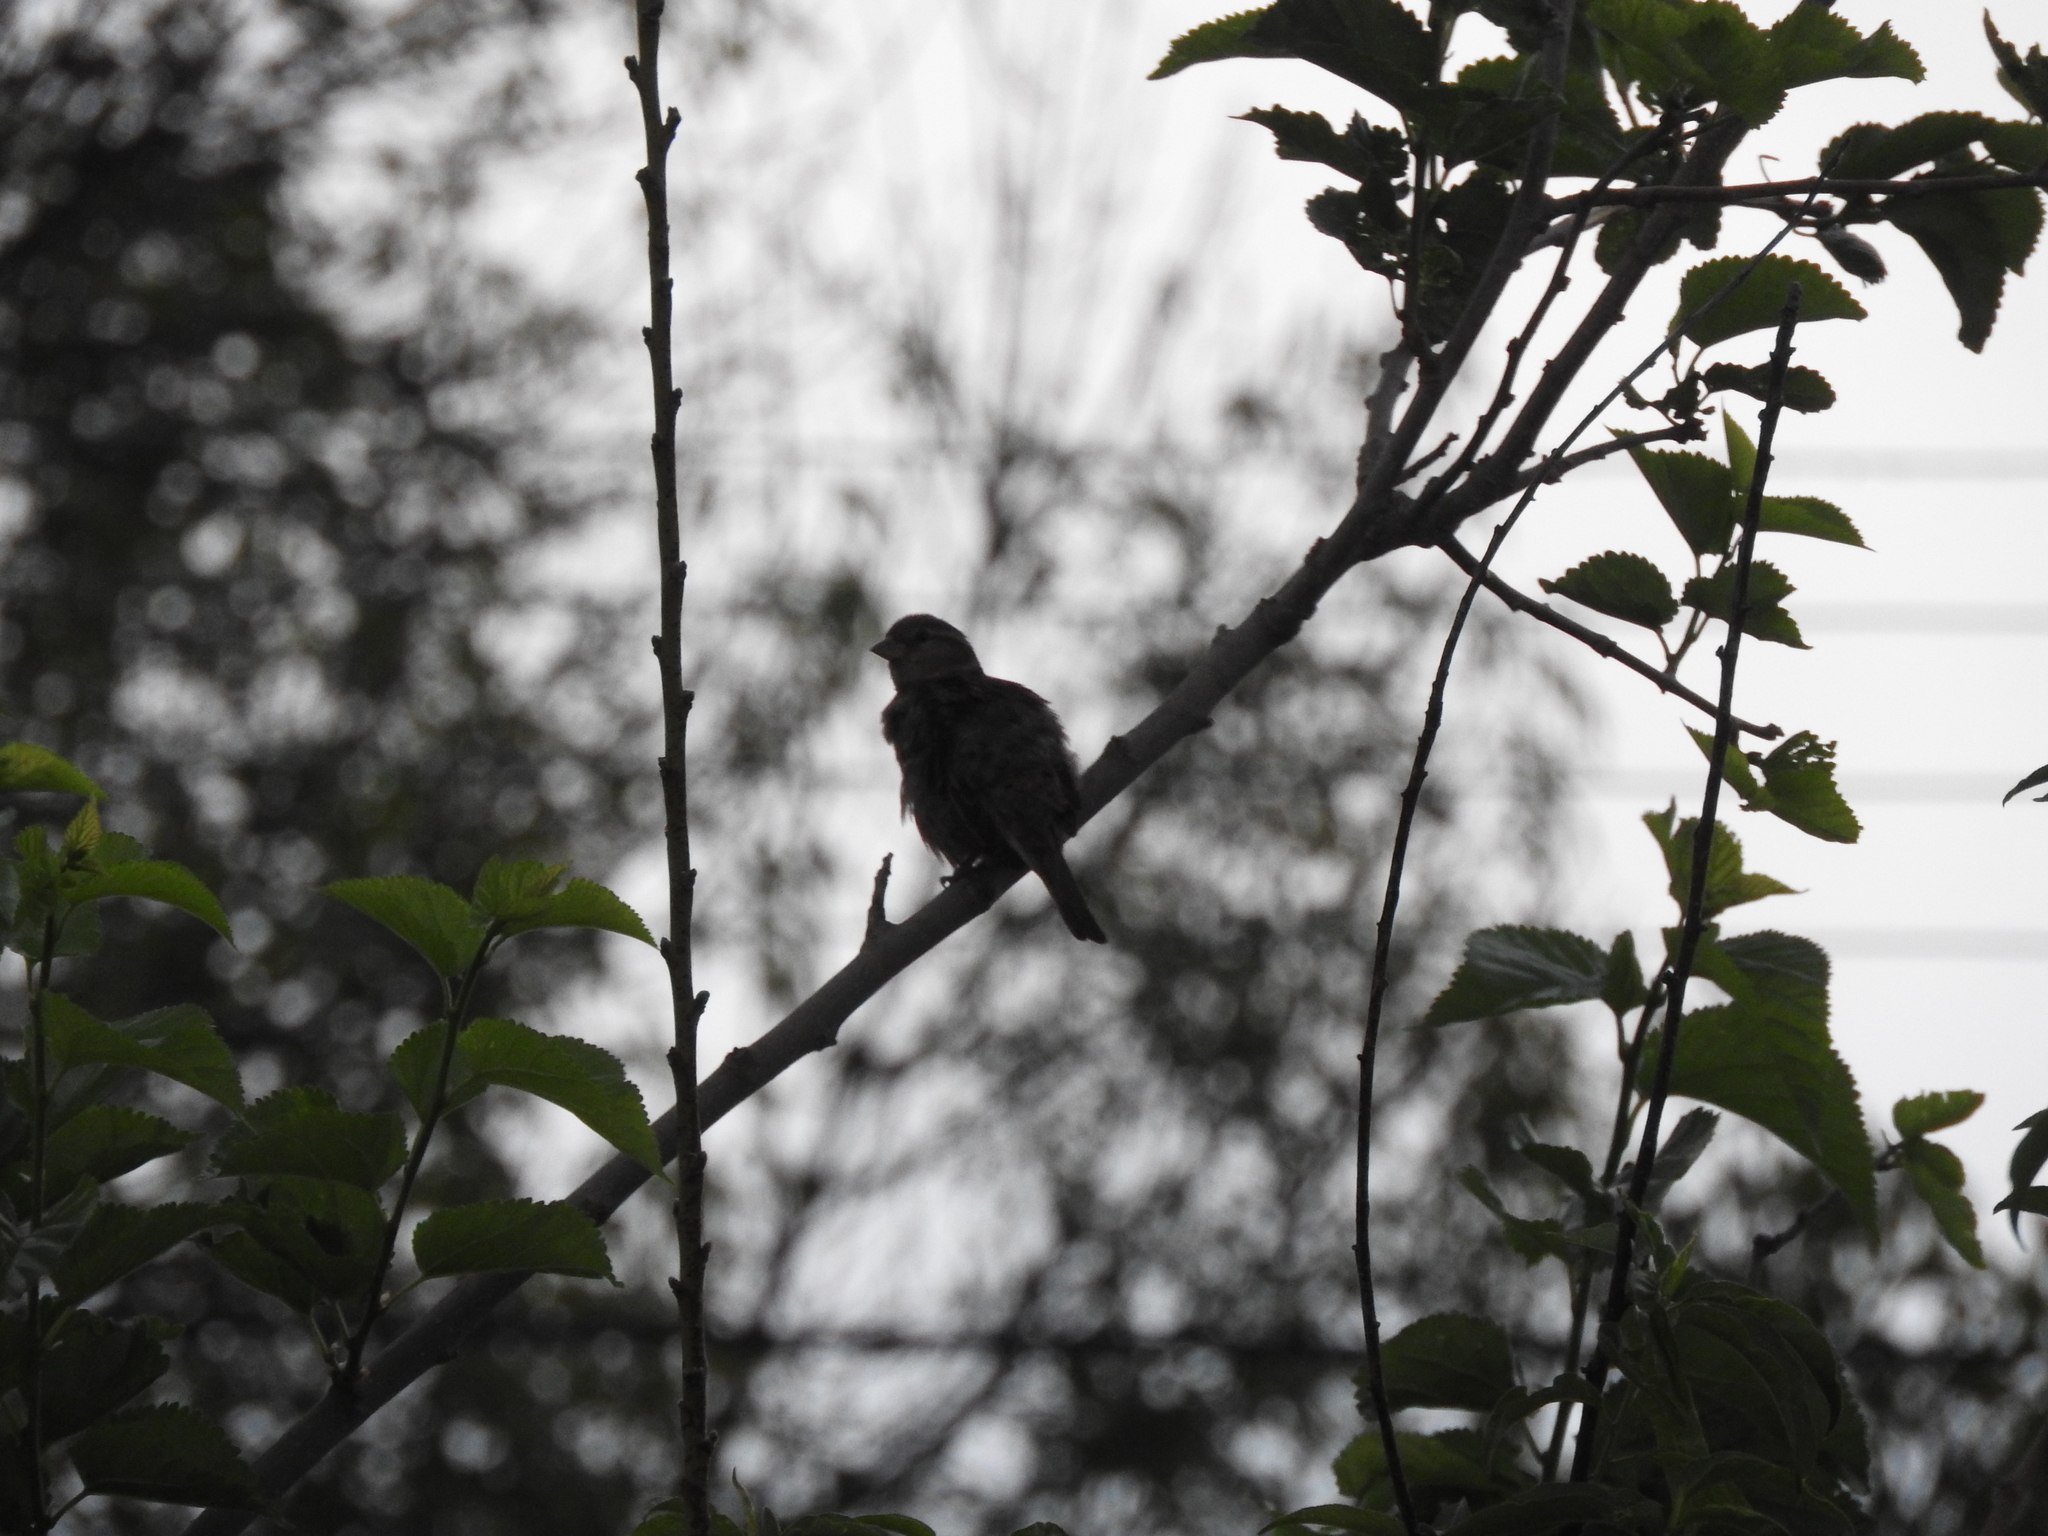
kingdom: Animalia
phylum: Chordata
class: Aves
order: Passeriformes
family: Fringillidae
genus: Haemorhous
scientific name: Haemorhous mexicanus
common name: House finch
